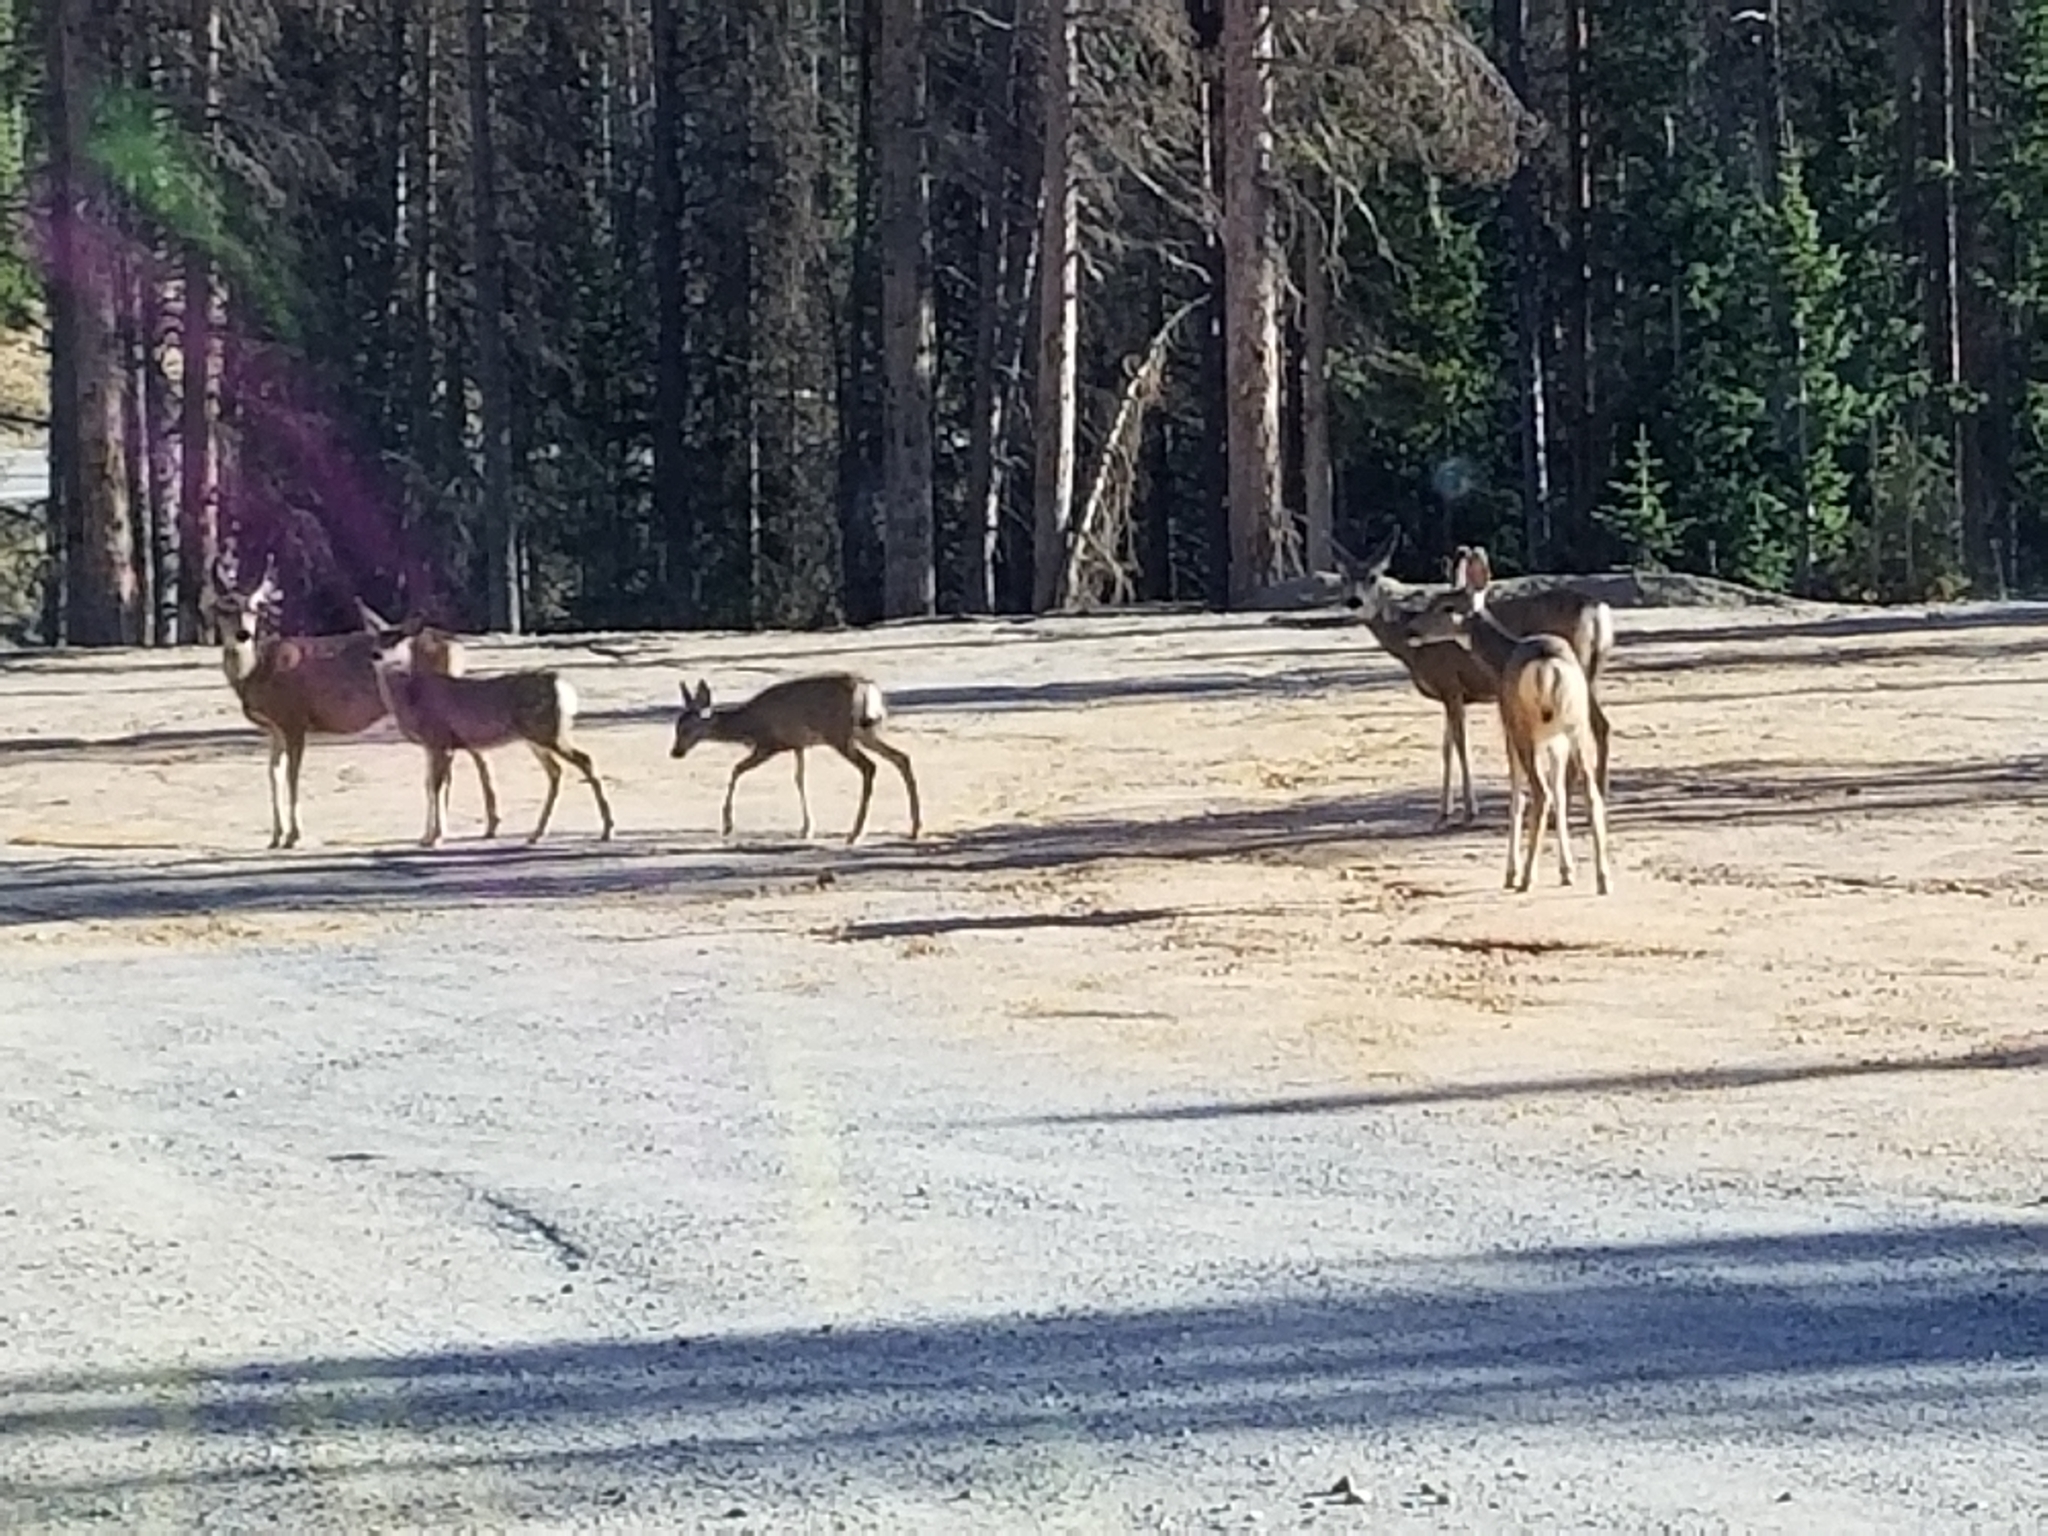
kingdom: Animalia
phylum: Chordata
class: Mammalia
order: Artiodactyla
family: Cervidae
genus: Odocoileus
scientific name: Odocoileus hemionus
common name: Mule deer
